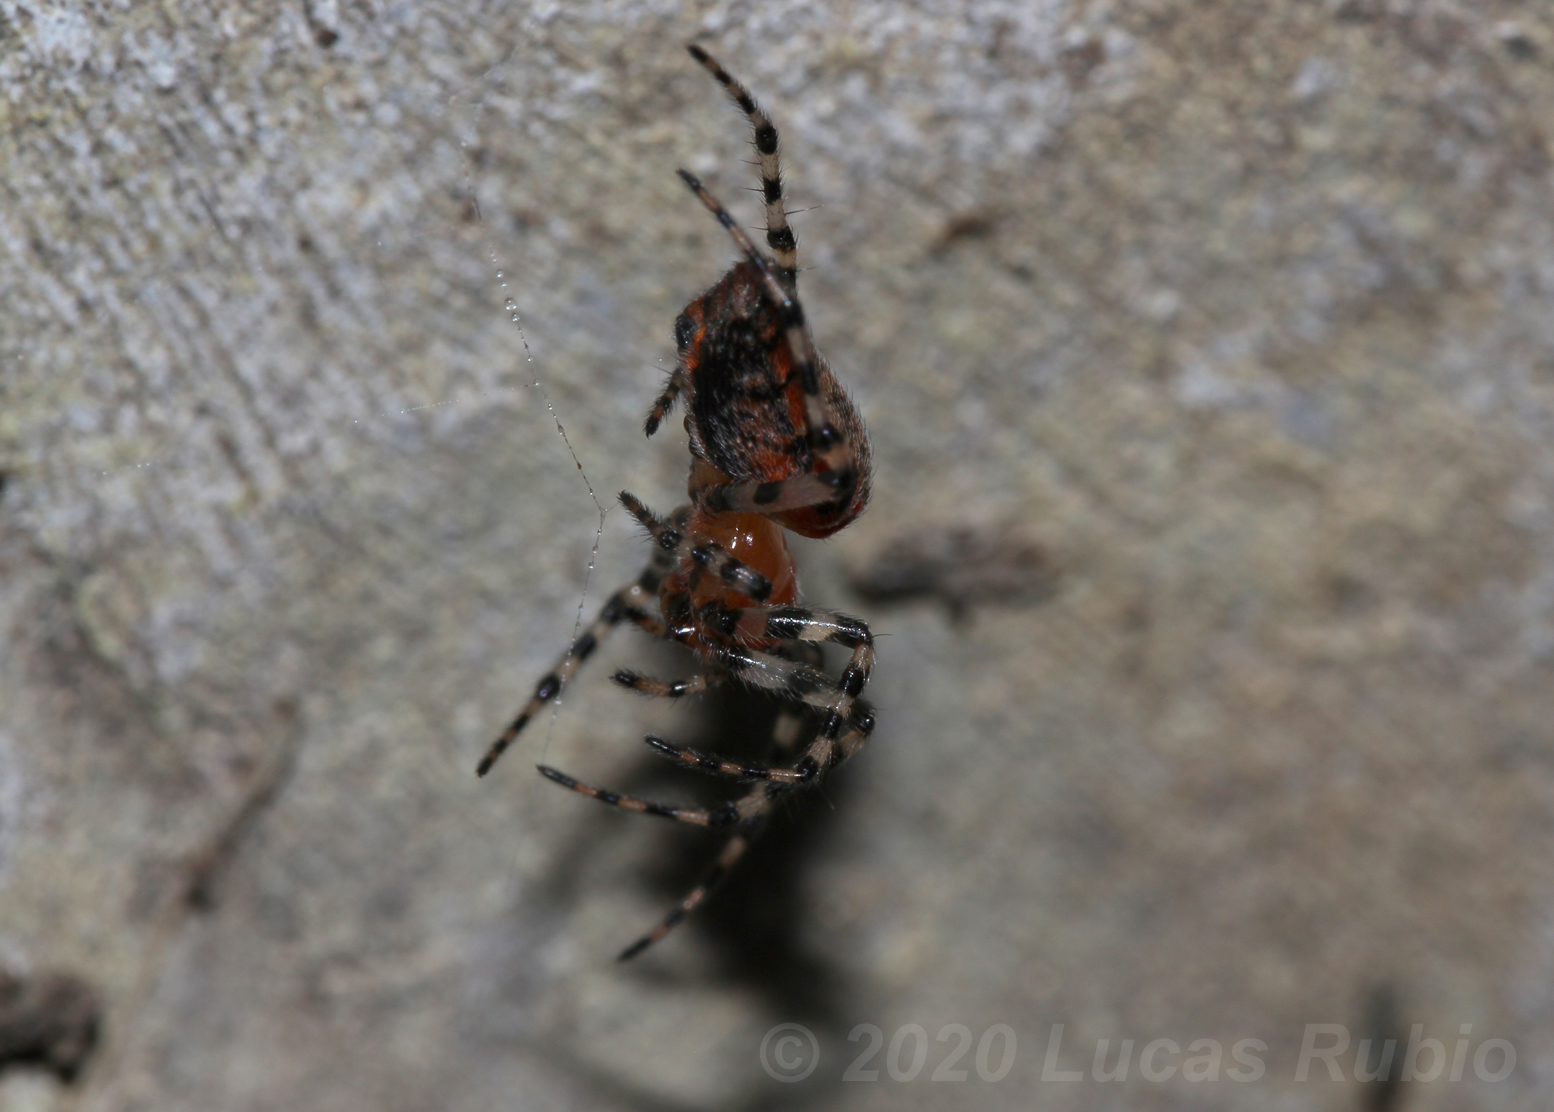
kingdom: Animalia
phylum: Arthropoda
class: Arachnida
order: Araneae
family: Araneidae
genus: Alpaida
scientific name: Alpaida gallardoi
